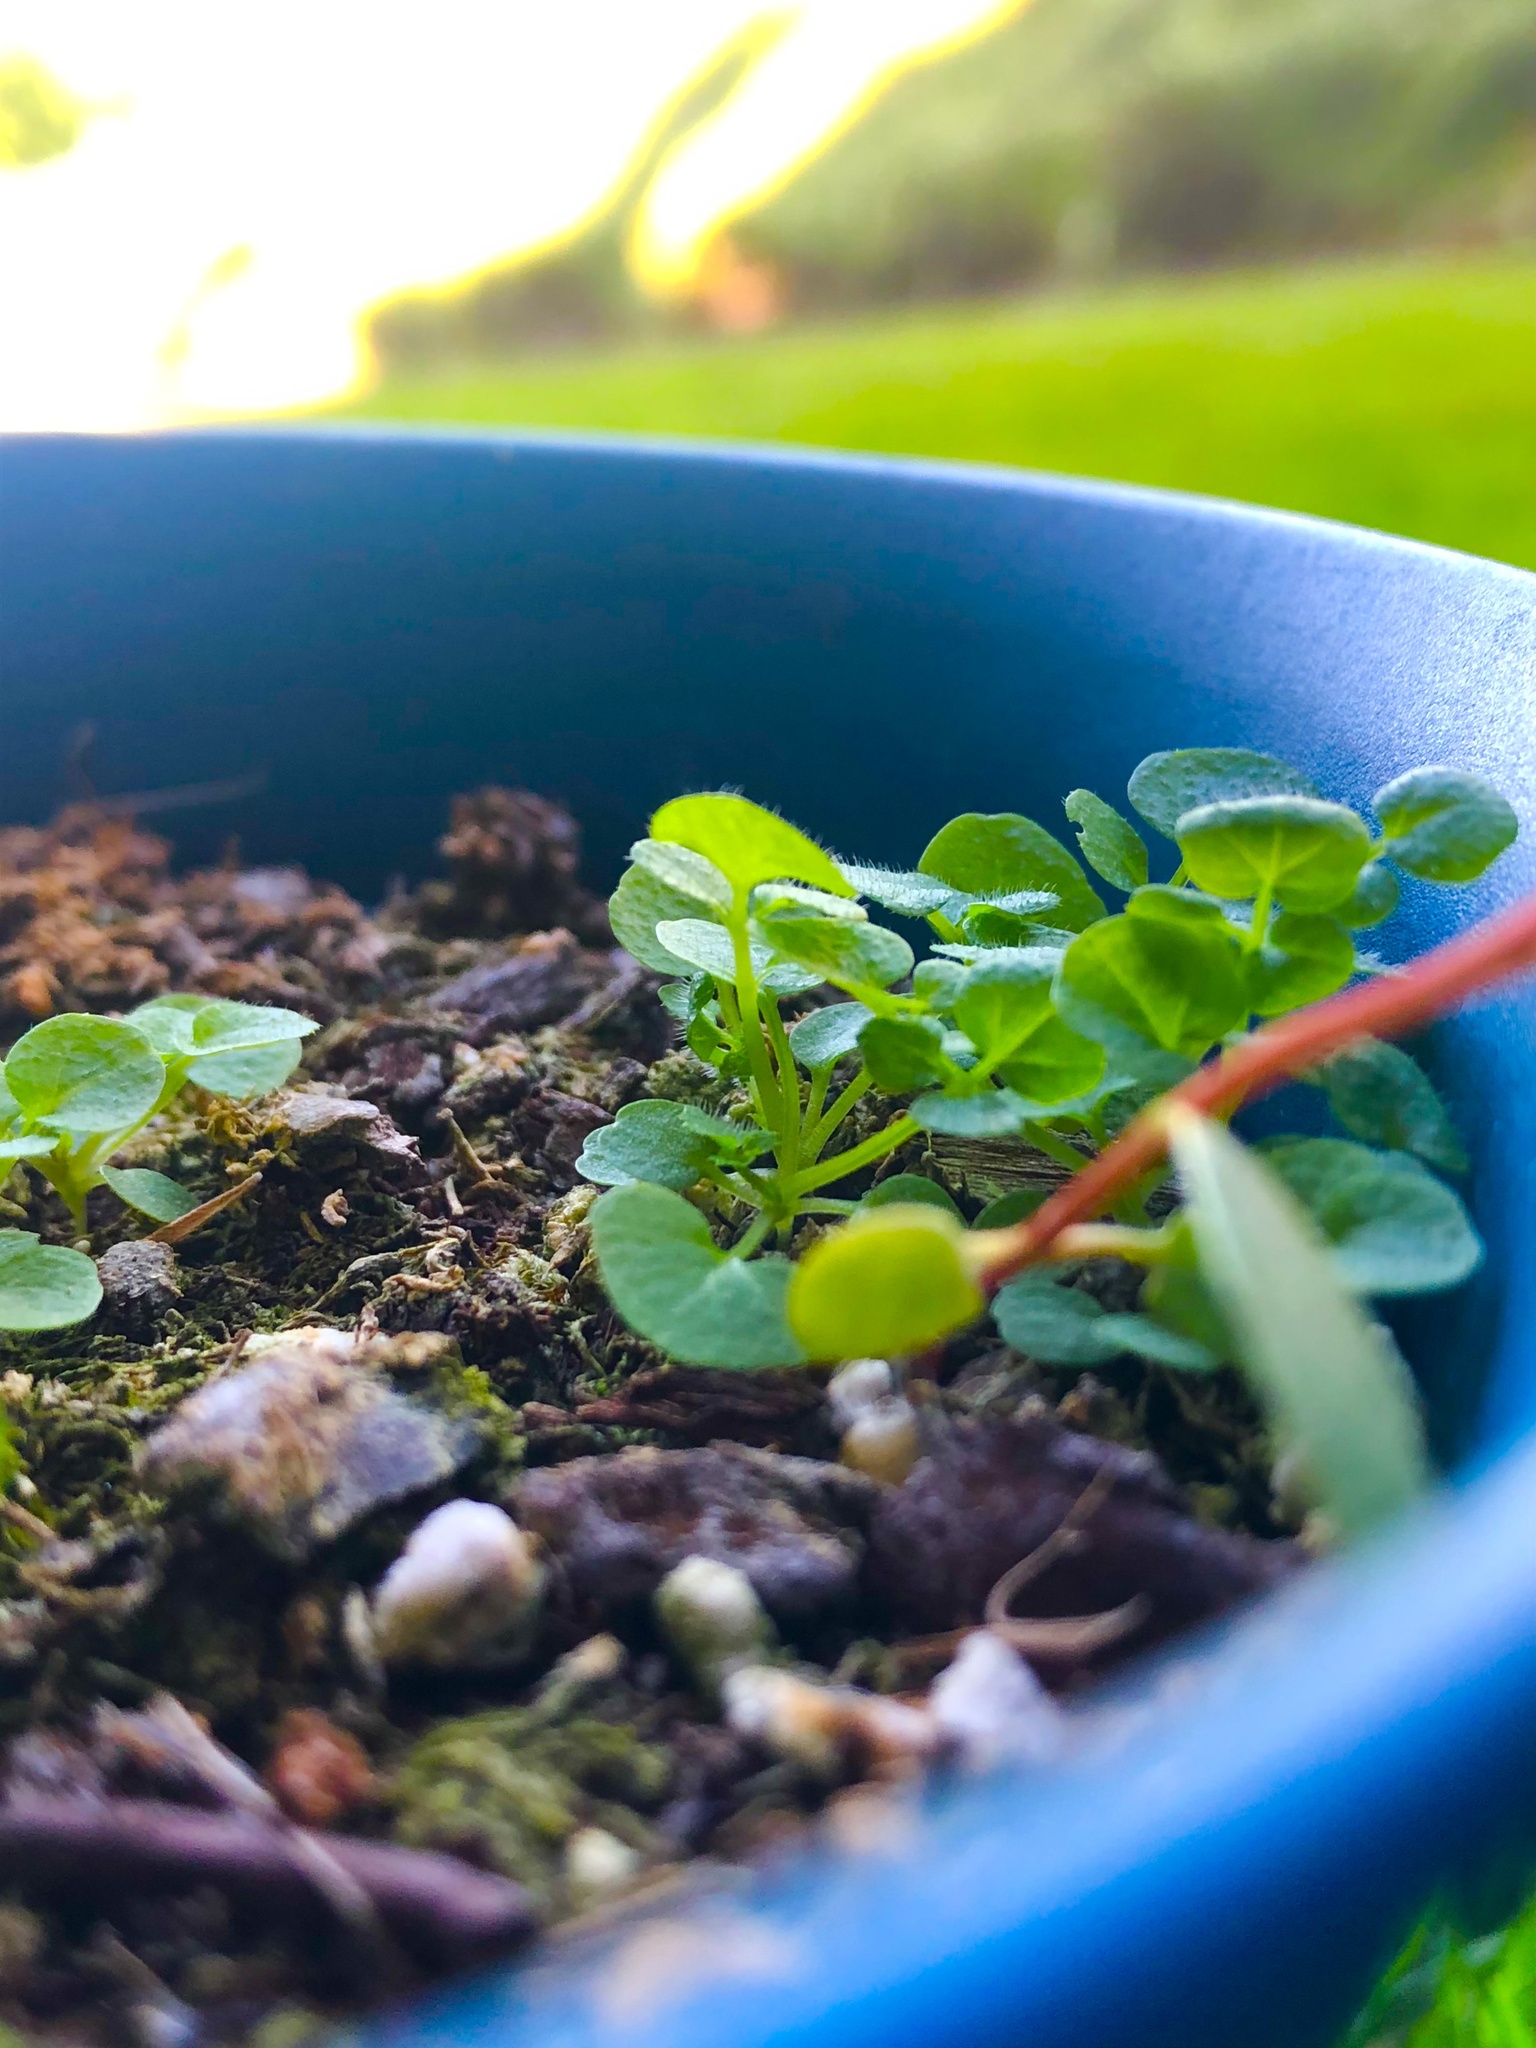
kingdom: Plantae
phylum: Tracheophyta
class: Magnoliopsida
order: Brassicales
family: Brassicaceae
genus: Cardamine
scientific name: Cardamine hirsuta
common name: Hairy bittercress
